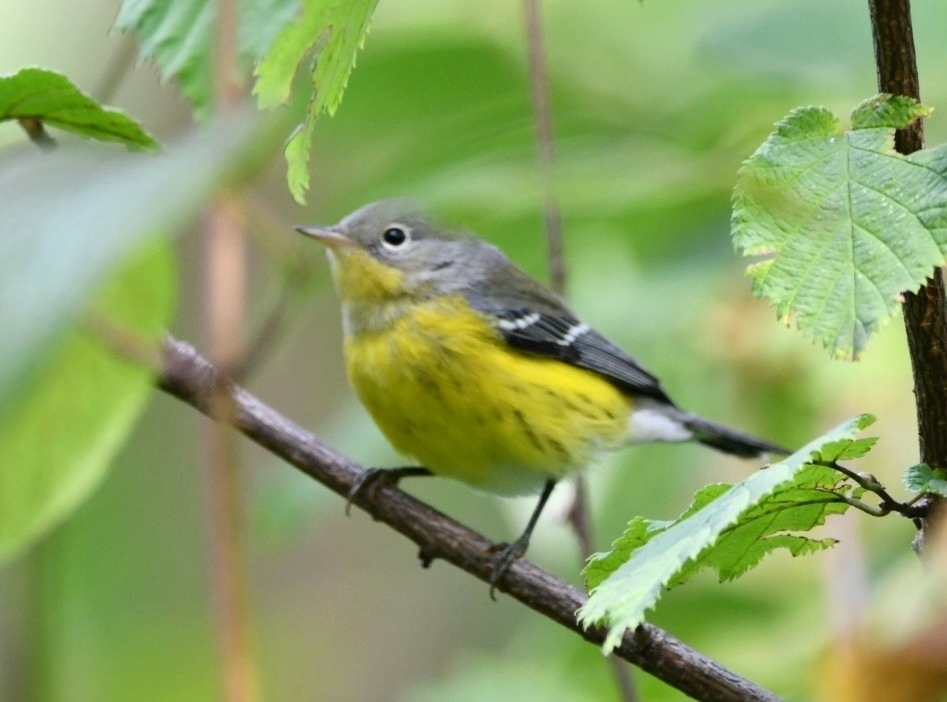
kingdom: Animalia
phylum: Chordata
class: Aves
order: Passeriformes
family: Parulidae
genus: Setophaga
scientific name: Setophaga magnolia
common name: Magnolia warbler
